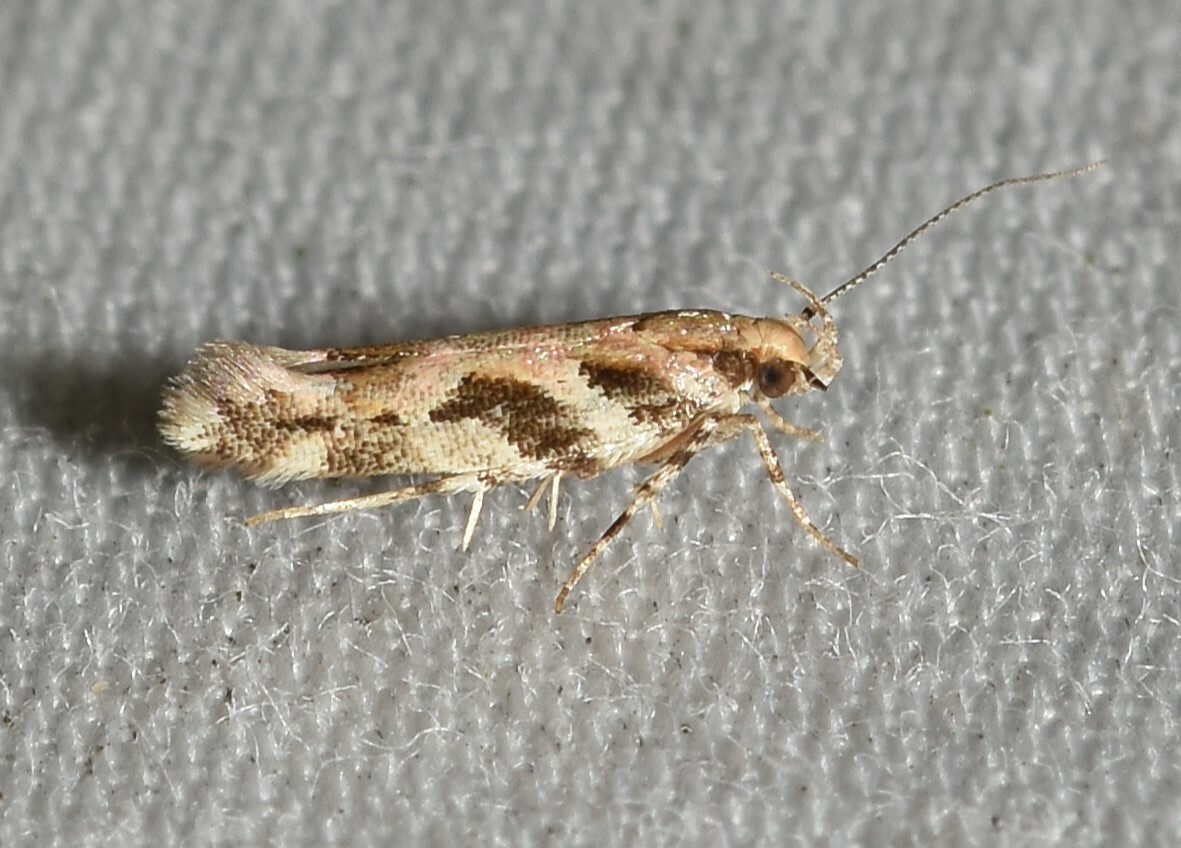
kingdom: Animalia
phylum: Arthropoda
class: Insecta
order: Lepidoptera
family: Gelechiidae
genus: Aristotelia
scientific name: Aristotelia roseosuffusella
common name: Pink-washed aristotelia moth
